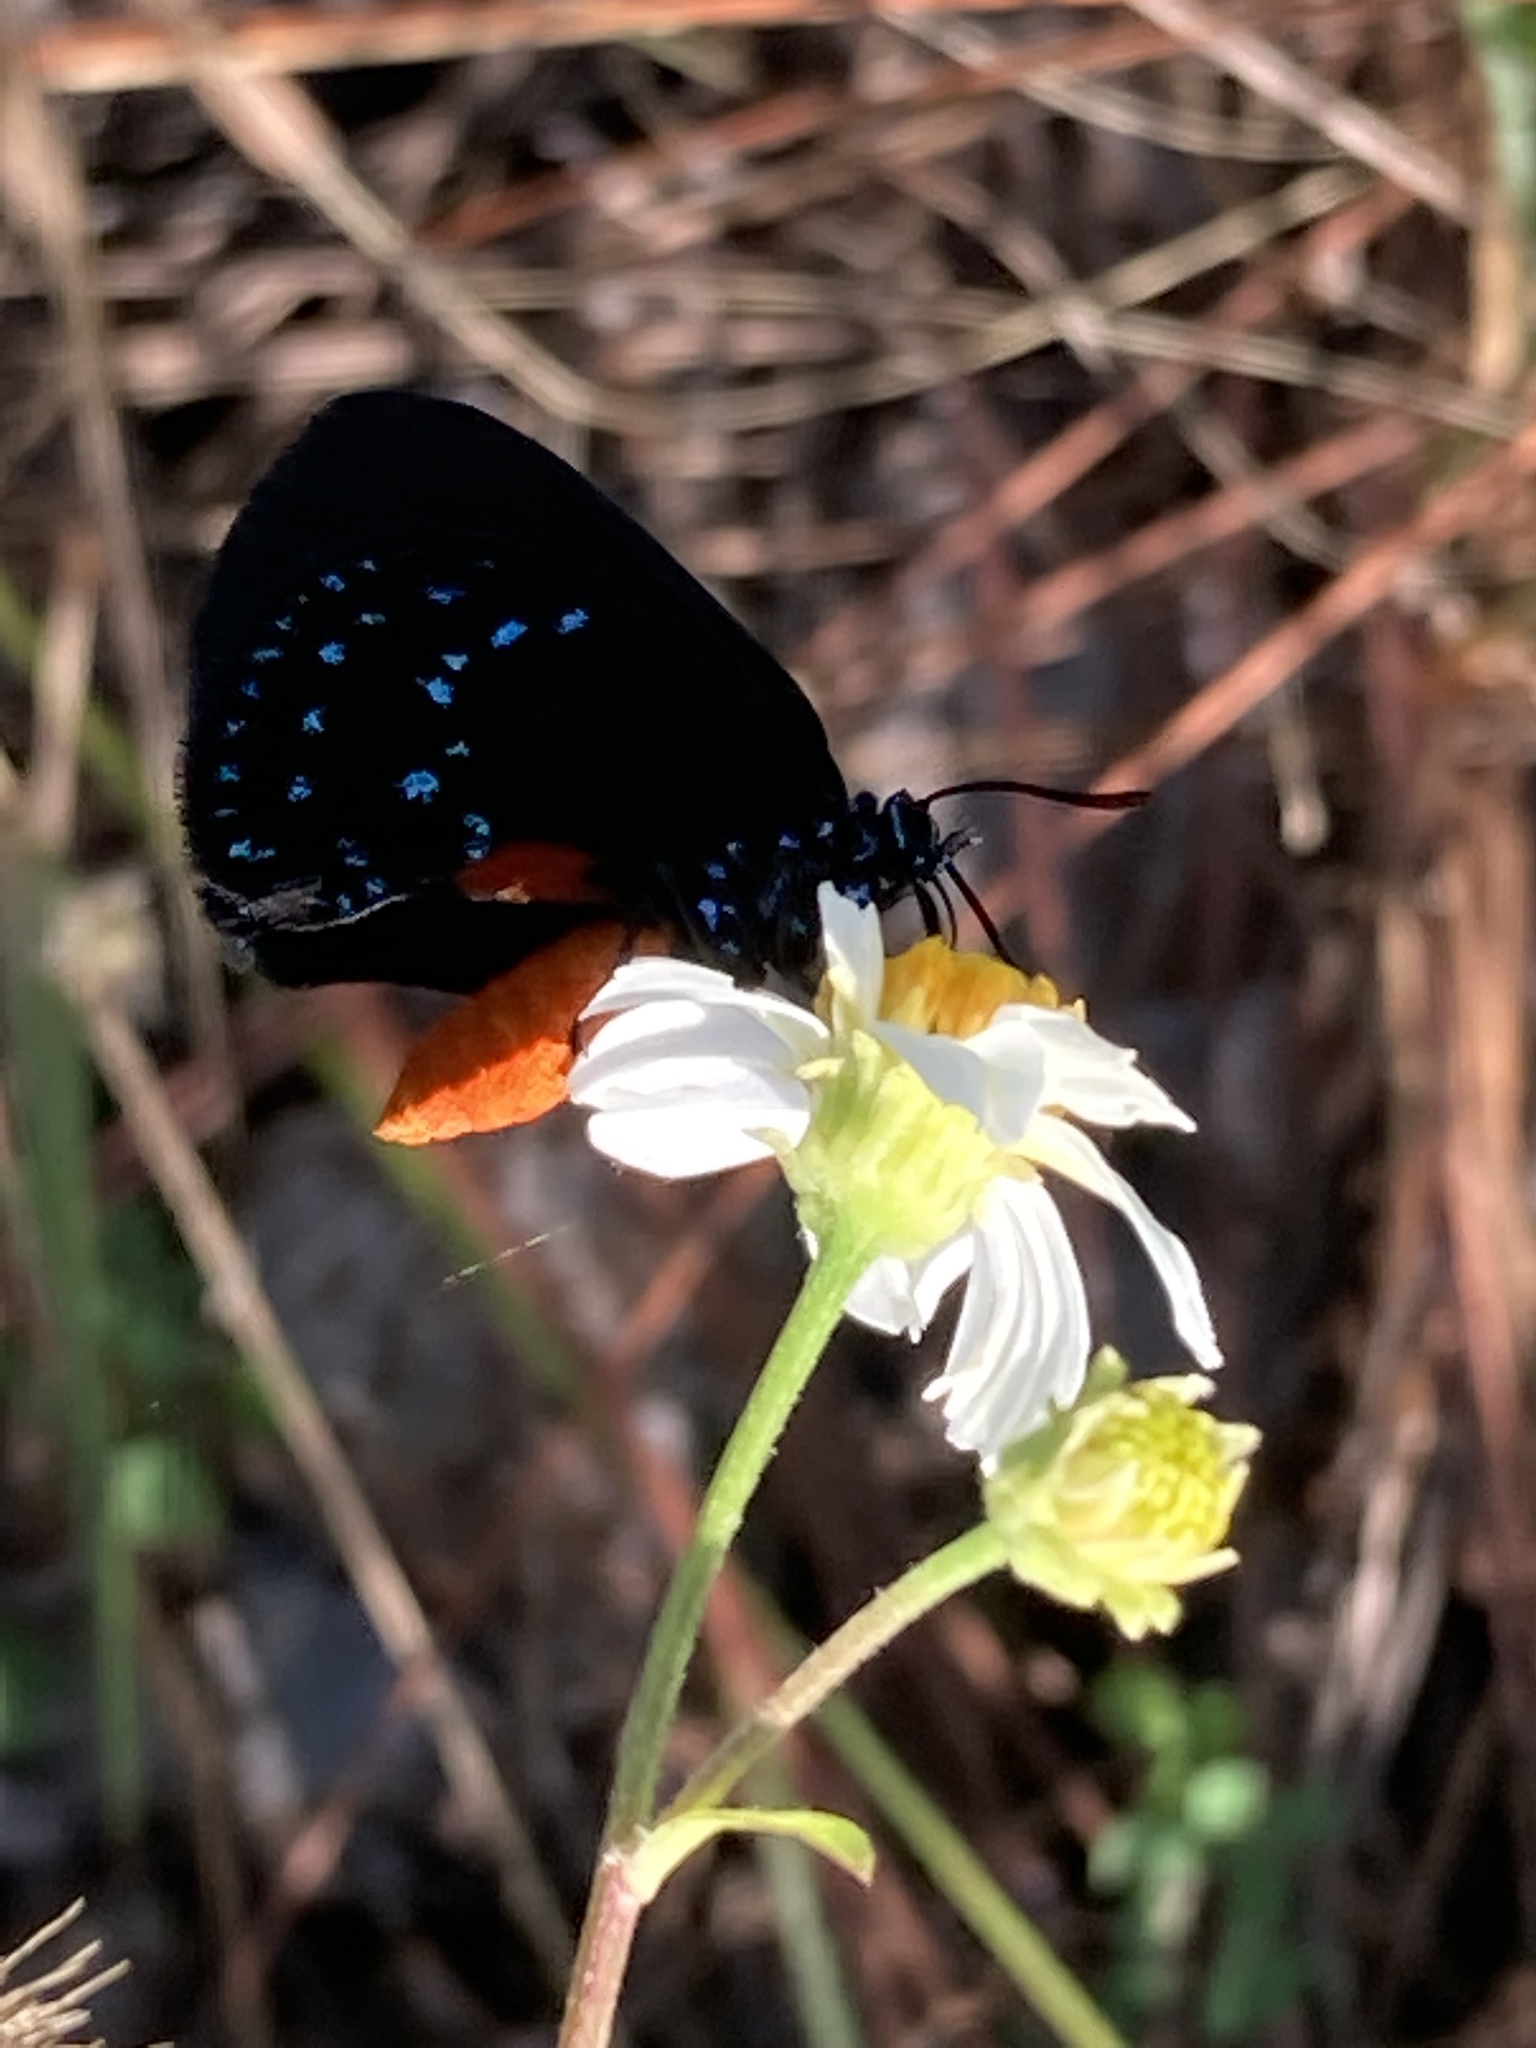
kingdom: Animalia
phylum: Arthropoda
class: Insecta
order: Lepidoptera
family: Lycaenidae
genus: Eumaeus
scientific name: Eumaeus atala
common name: Atala
